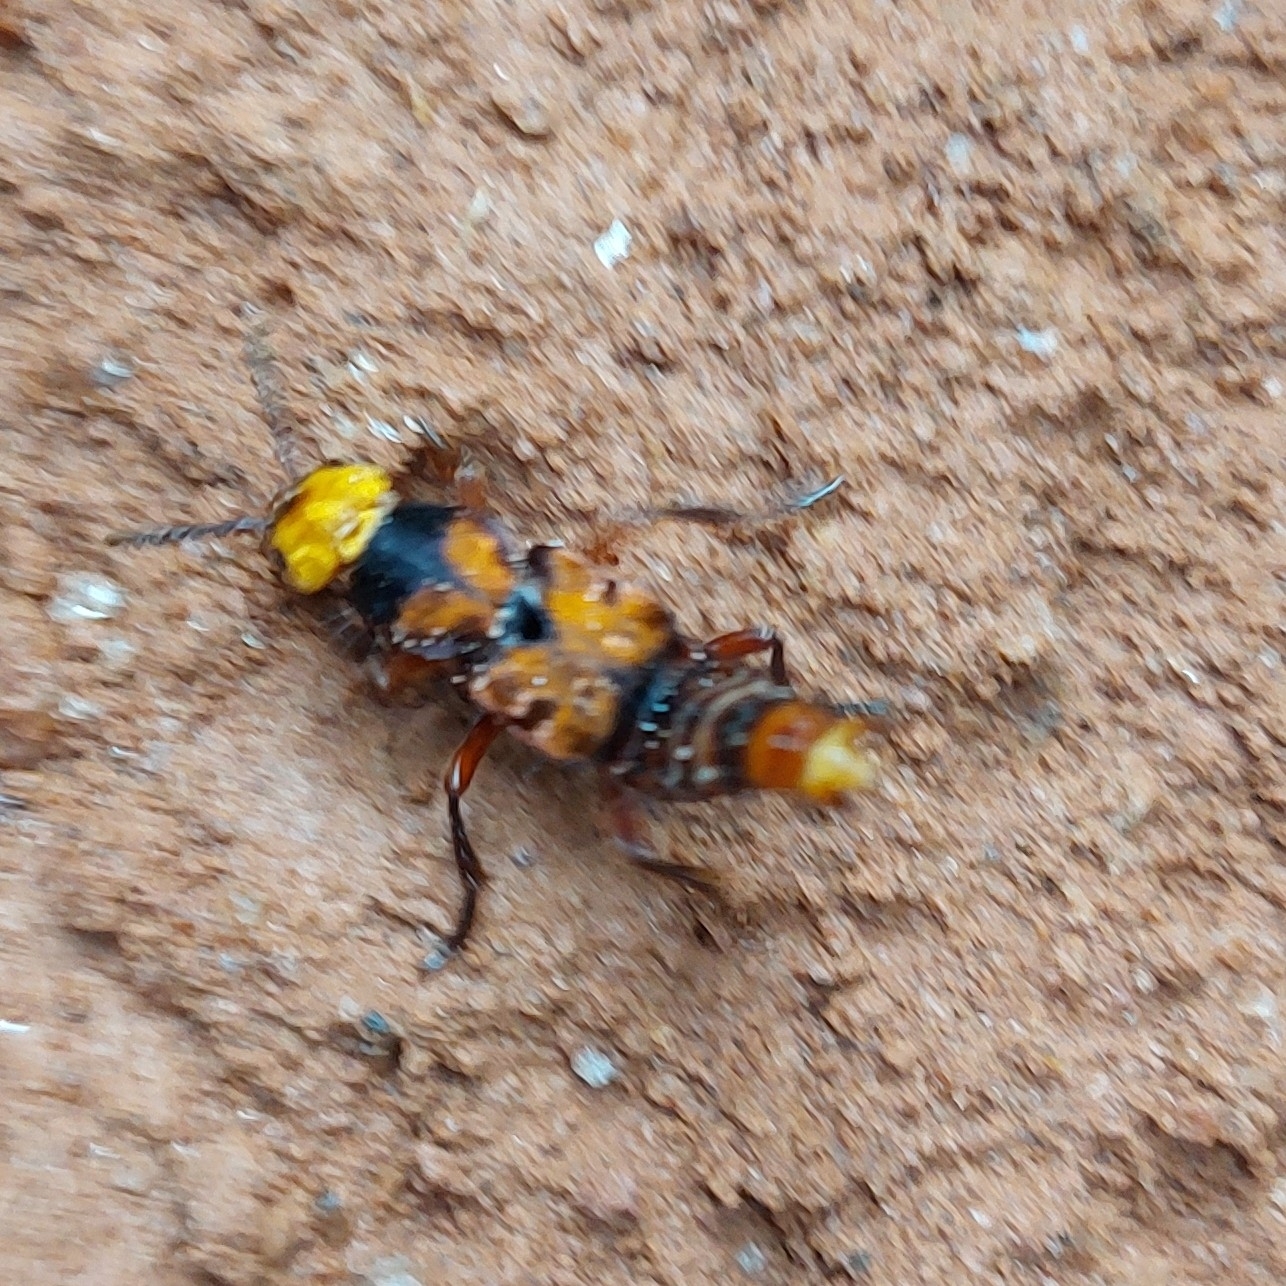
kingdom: Animalia
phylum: Arthropoda
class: Insecta
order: Coleoptera
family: Staphylinidae
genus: Glenus
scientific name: Glenus chrysis
